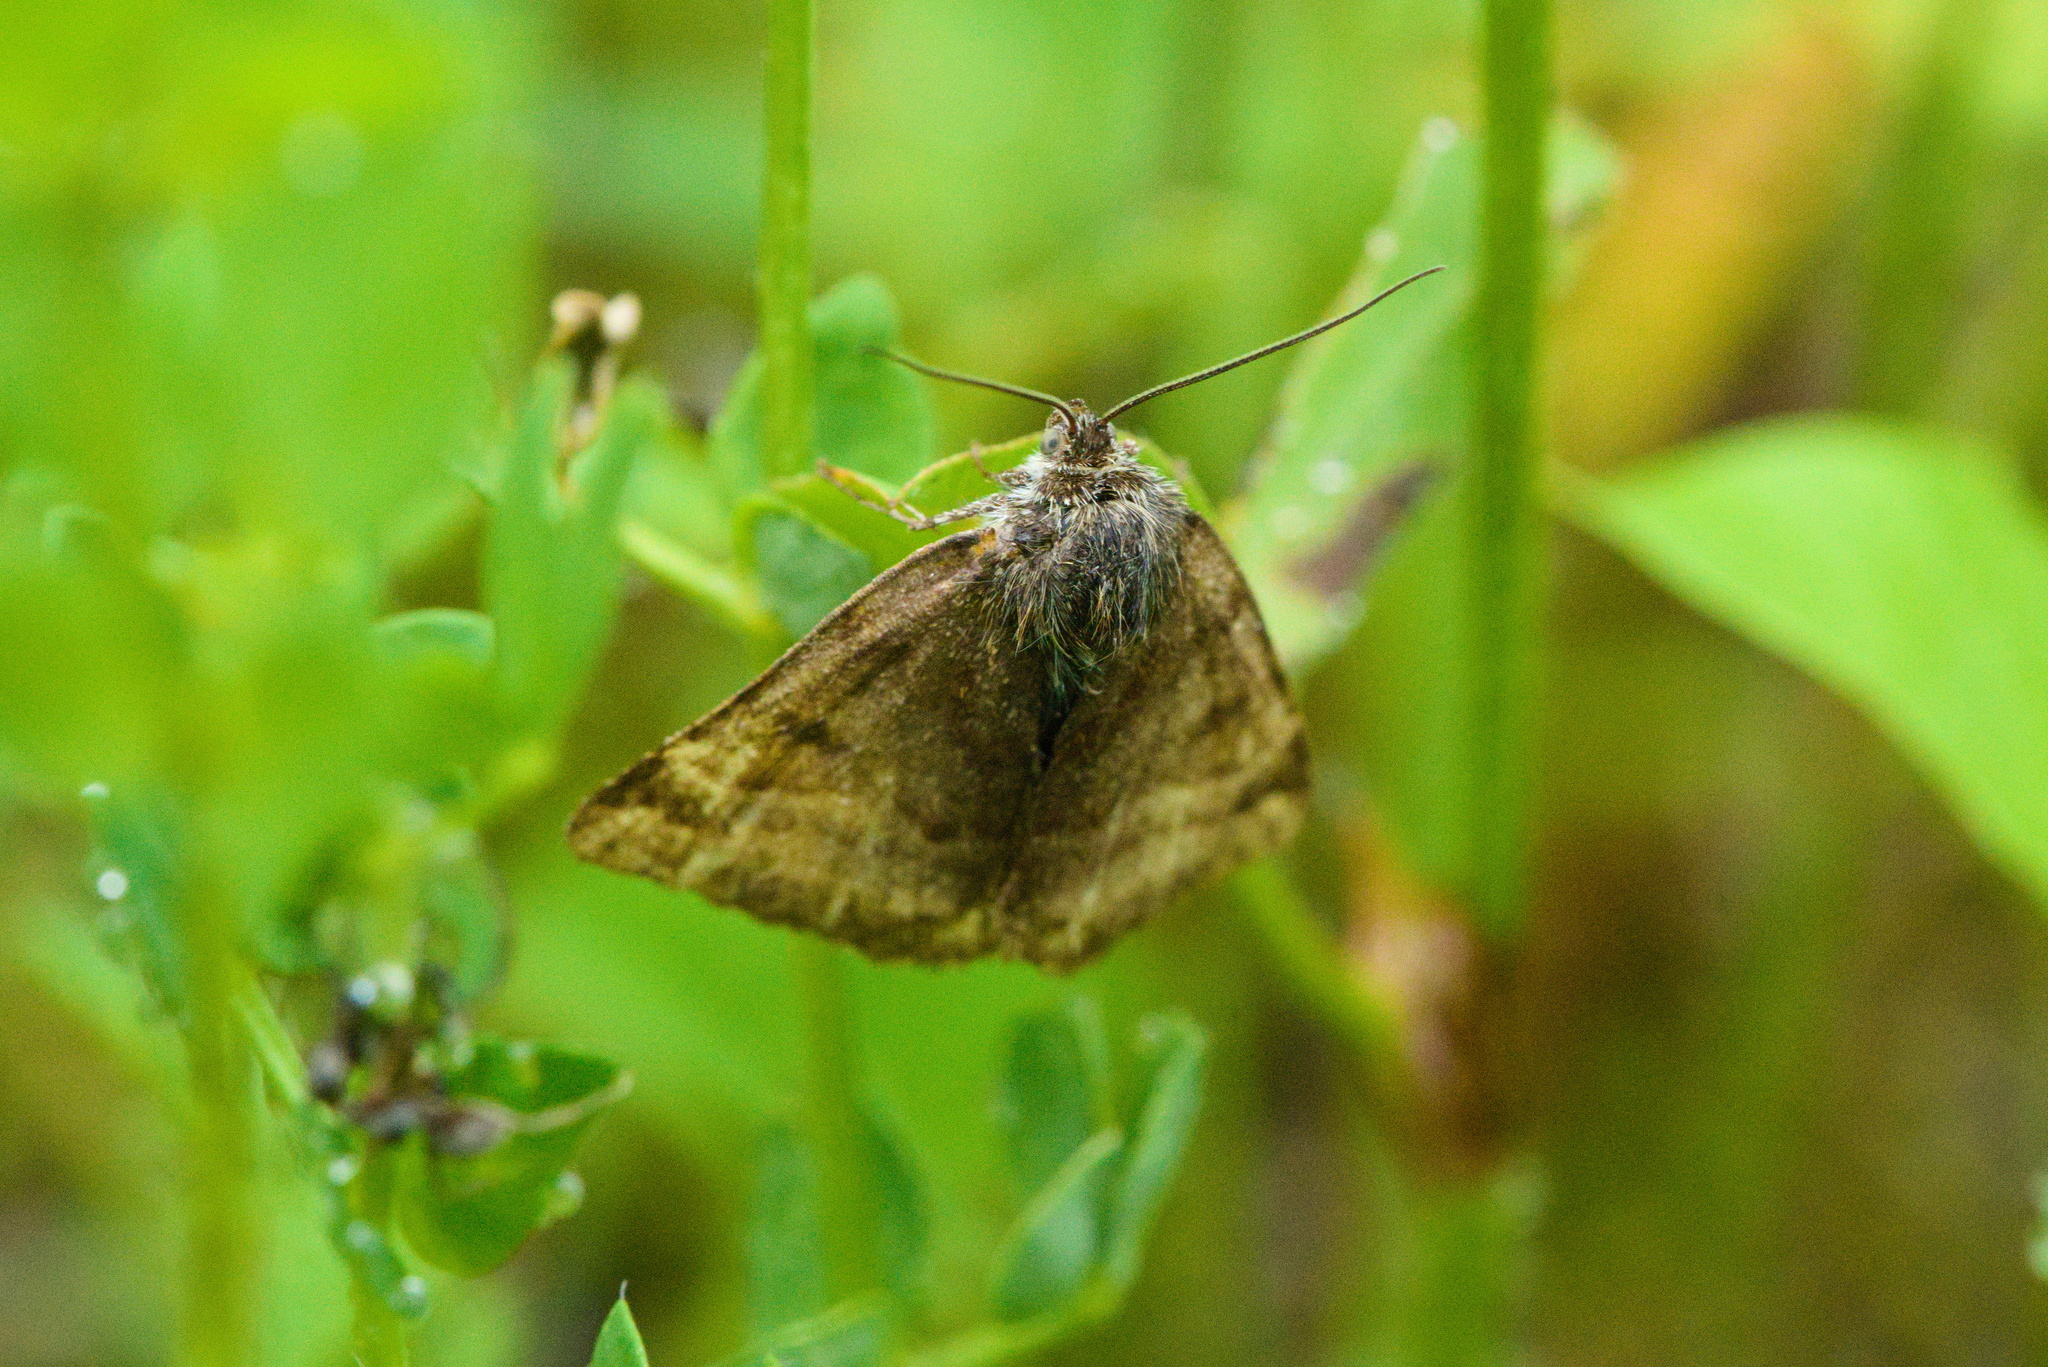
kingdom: Animalia
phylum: Arthropoda
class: Insecta
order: Lepidoptera
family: Erebidae
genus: Euclidia
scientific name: Euclidia glyphica
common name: Burnet companion
